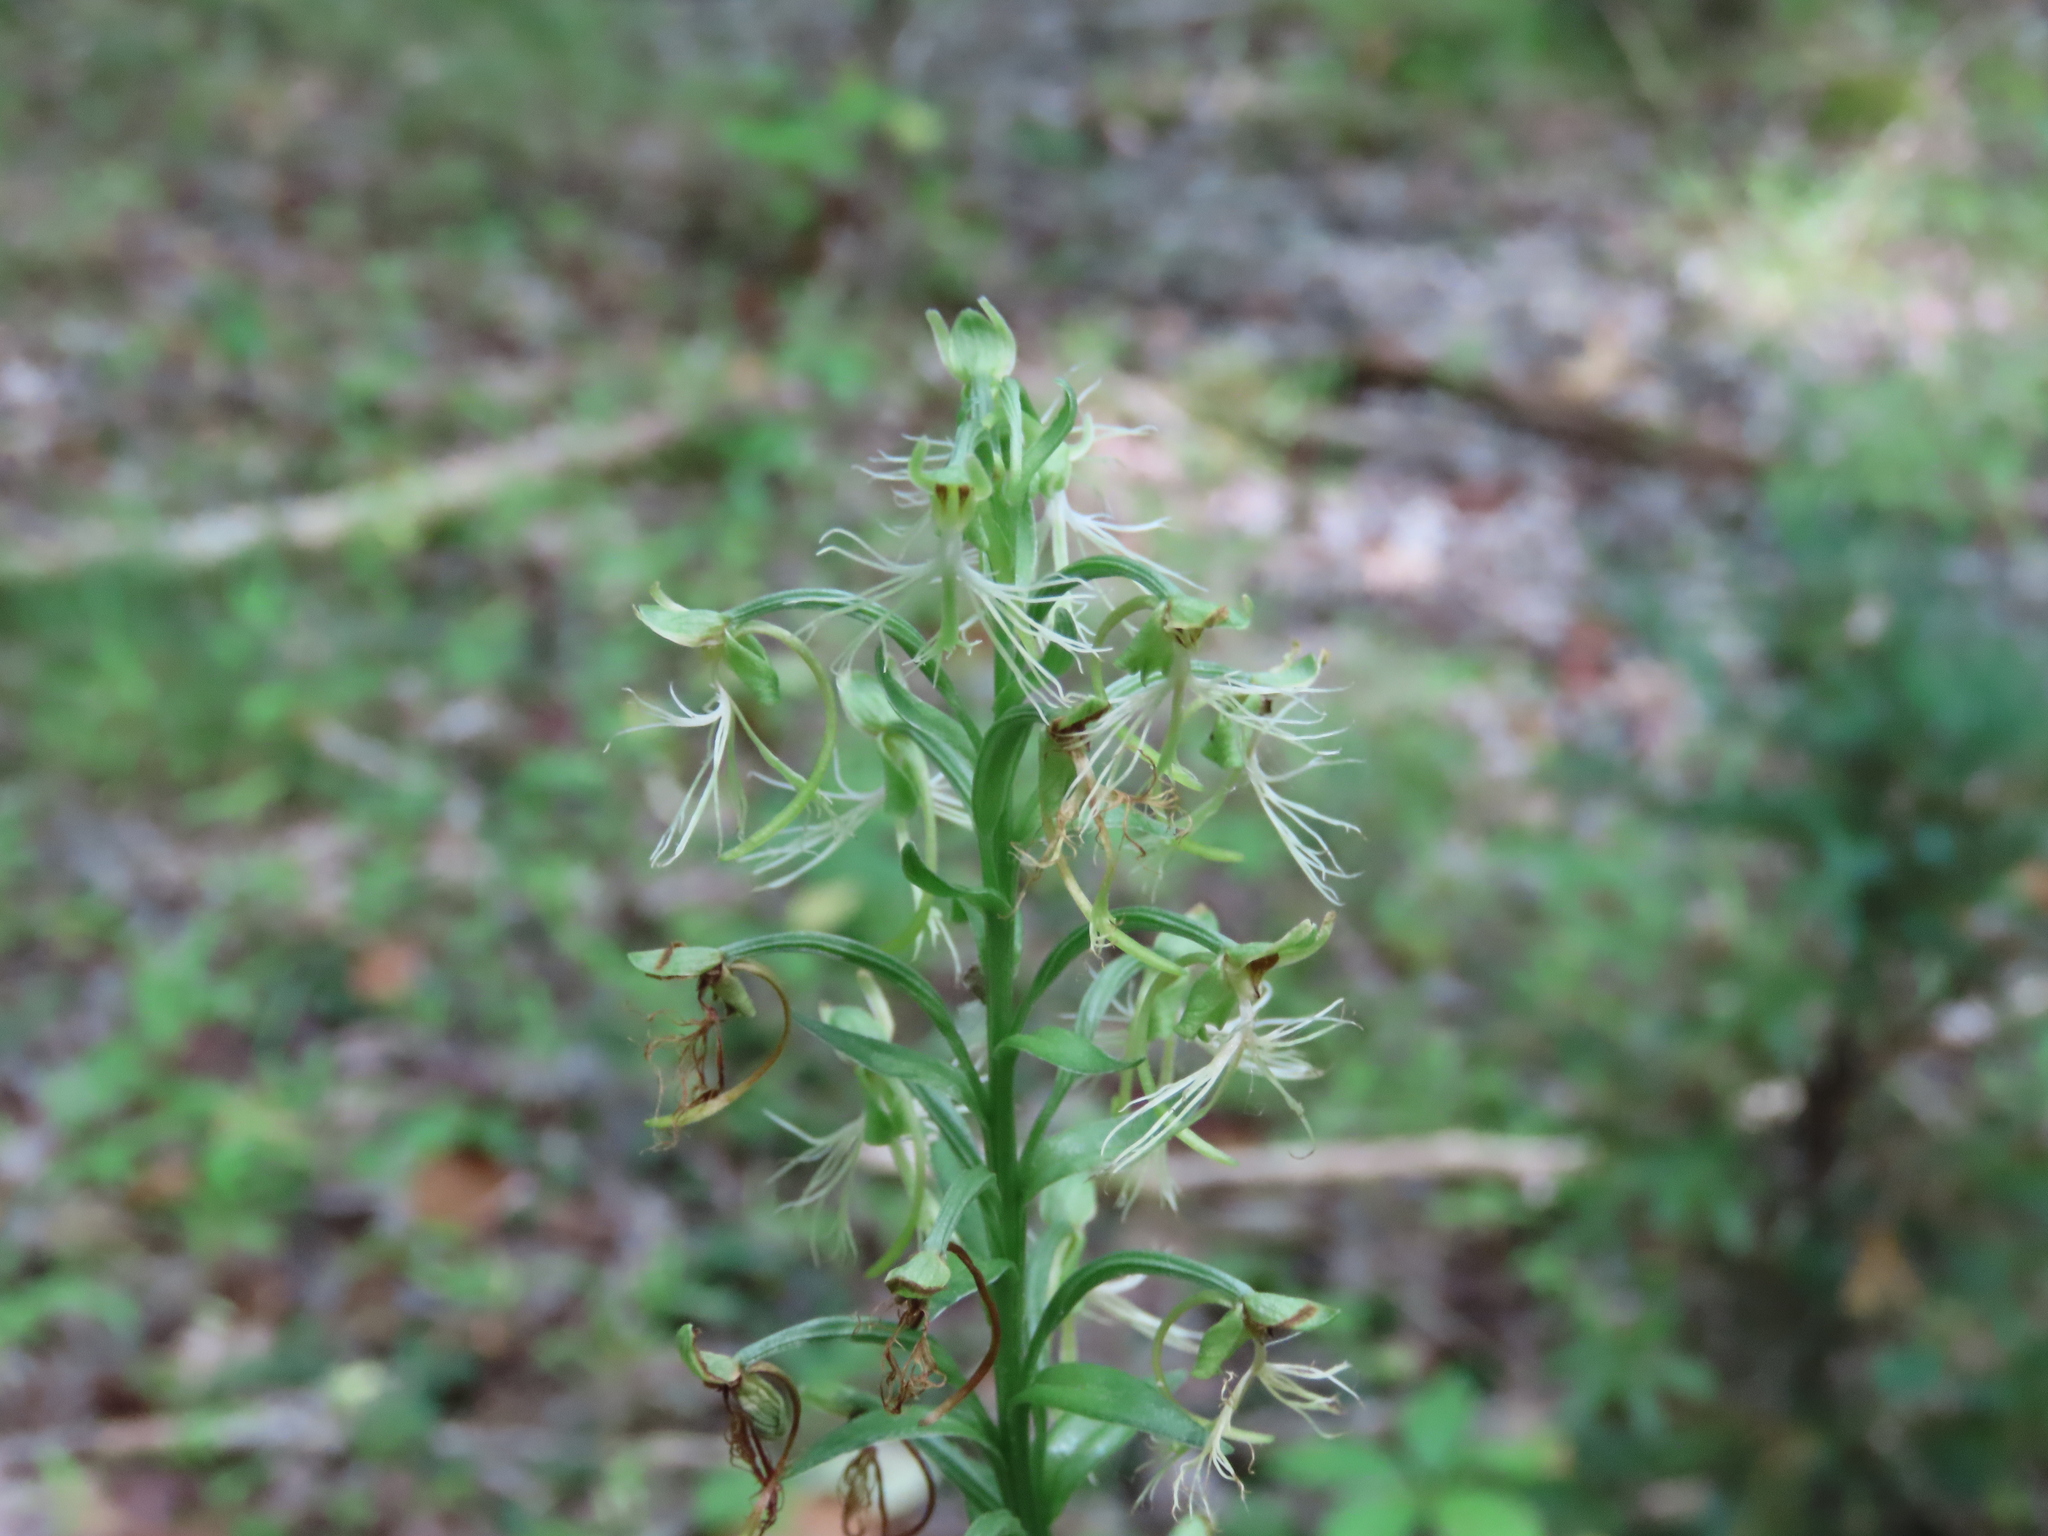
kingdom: Plantae
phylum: Tracheophyta
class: Liliopsida
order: Asparagales
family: Orchidaceae
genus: Platanthera
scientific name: Platanthera lacera
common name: Green fringed orchid
